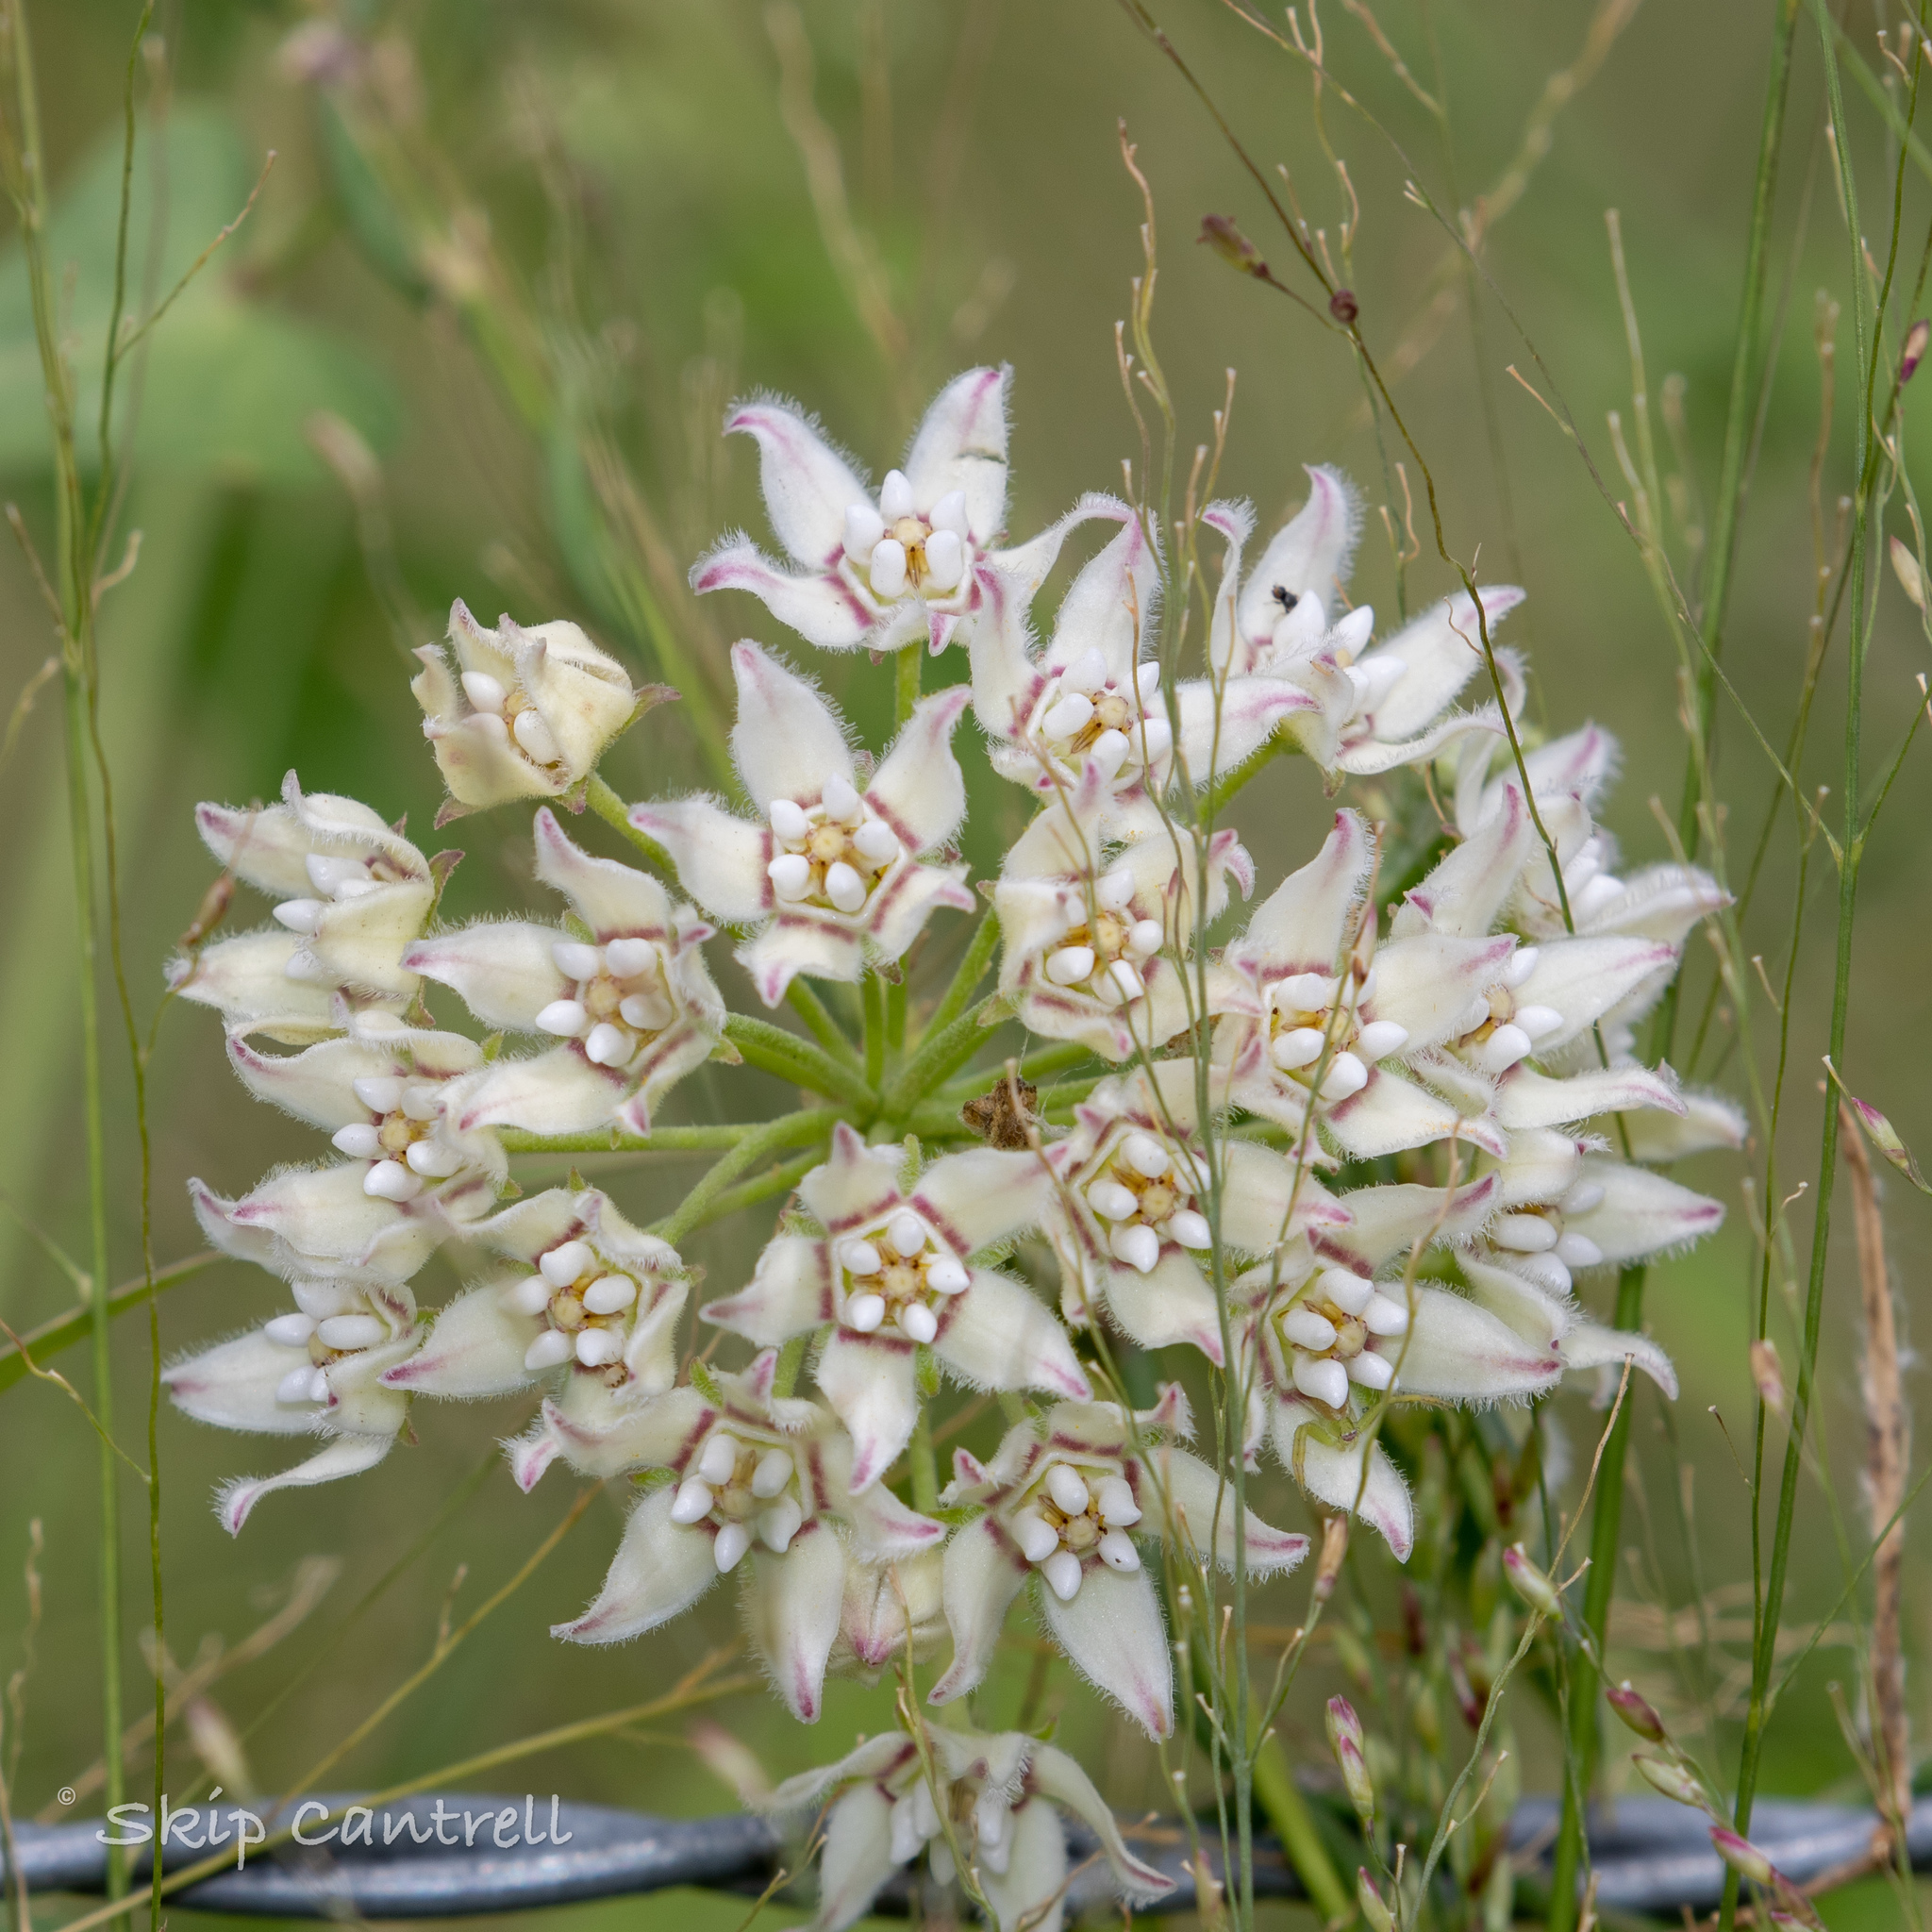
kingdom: Plantae
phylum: Tracheophyta
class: Magnoliopsida
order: Gentianales
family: Apocynaceae
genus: Funastrum
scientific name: Funastrum cynanchoides
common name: Climbing-milkweed
